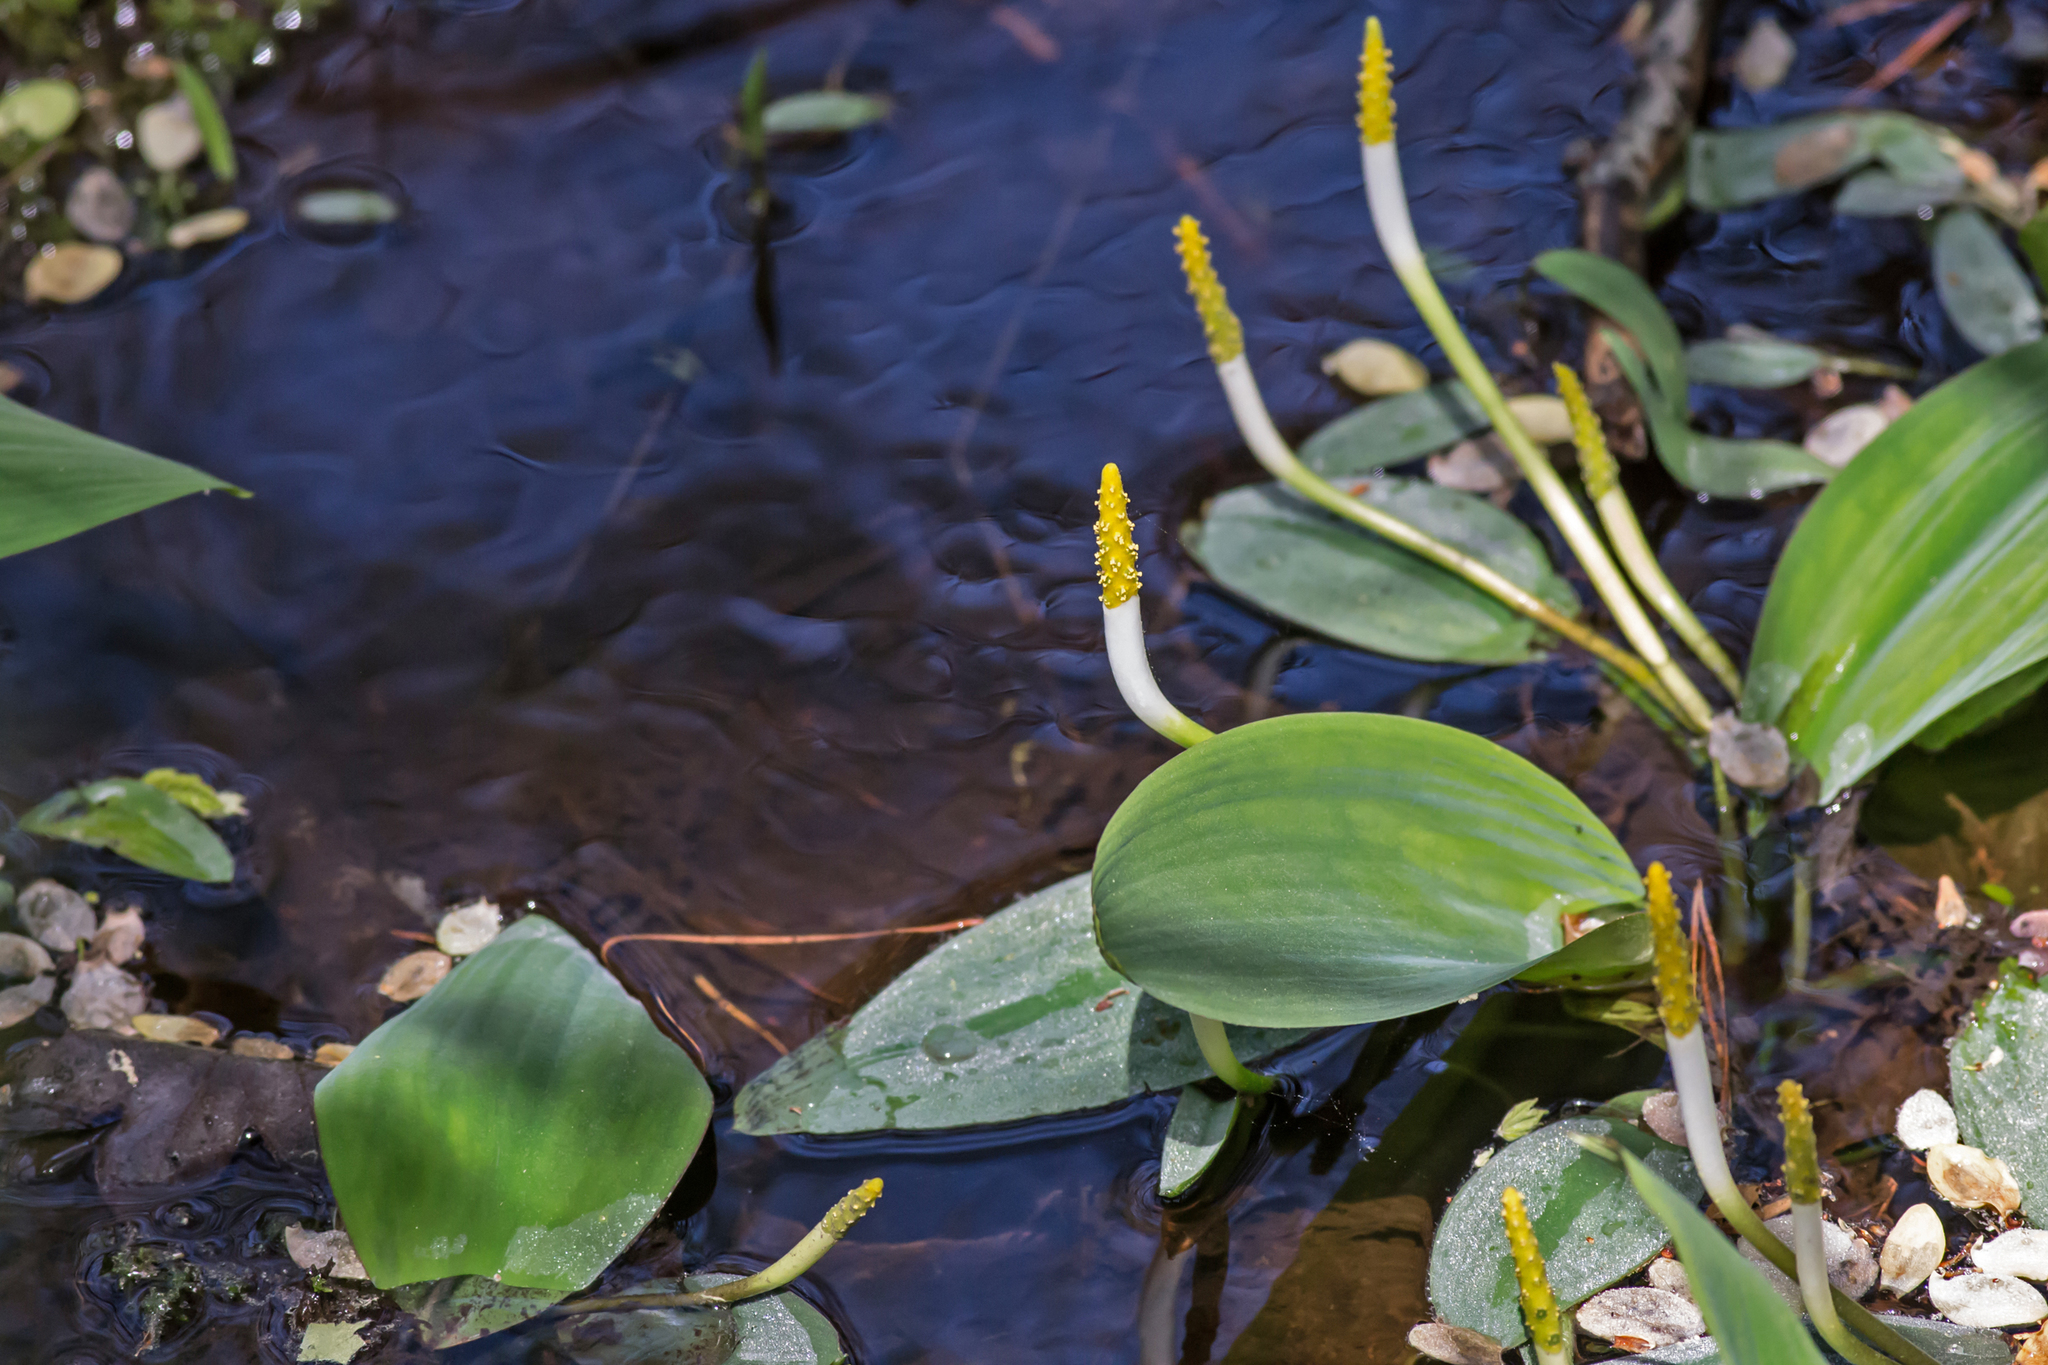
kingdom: Plantae
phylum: Tracheophyta
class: Liliopsida
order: Alismatales
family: Araceae
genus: Orontium
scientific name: Orontium aquaticum
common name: Golden-club
